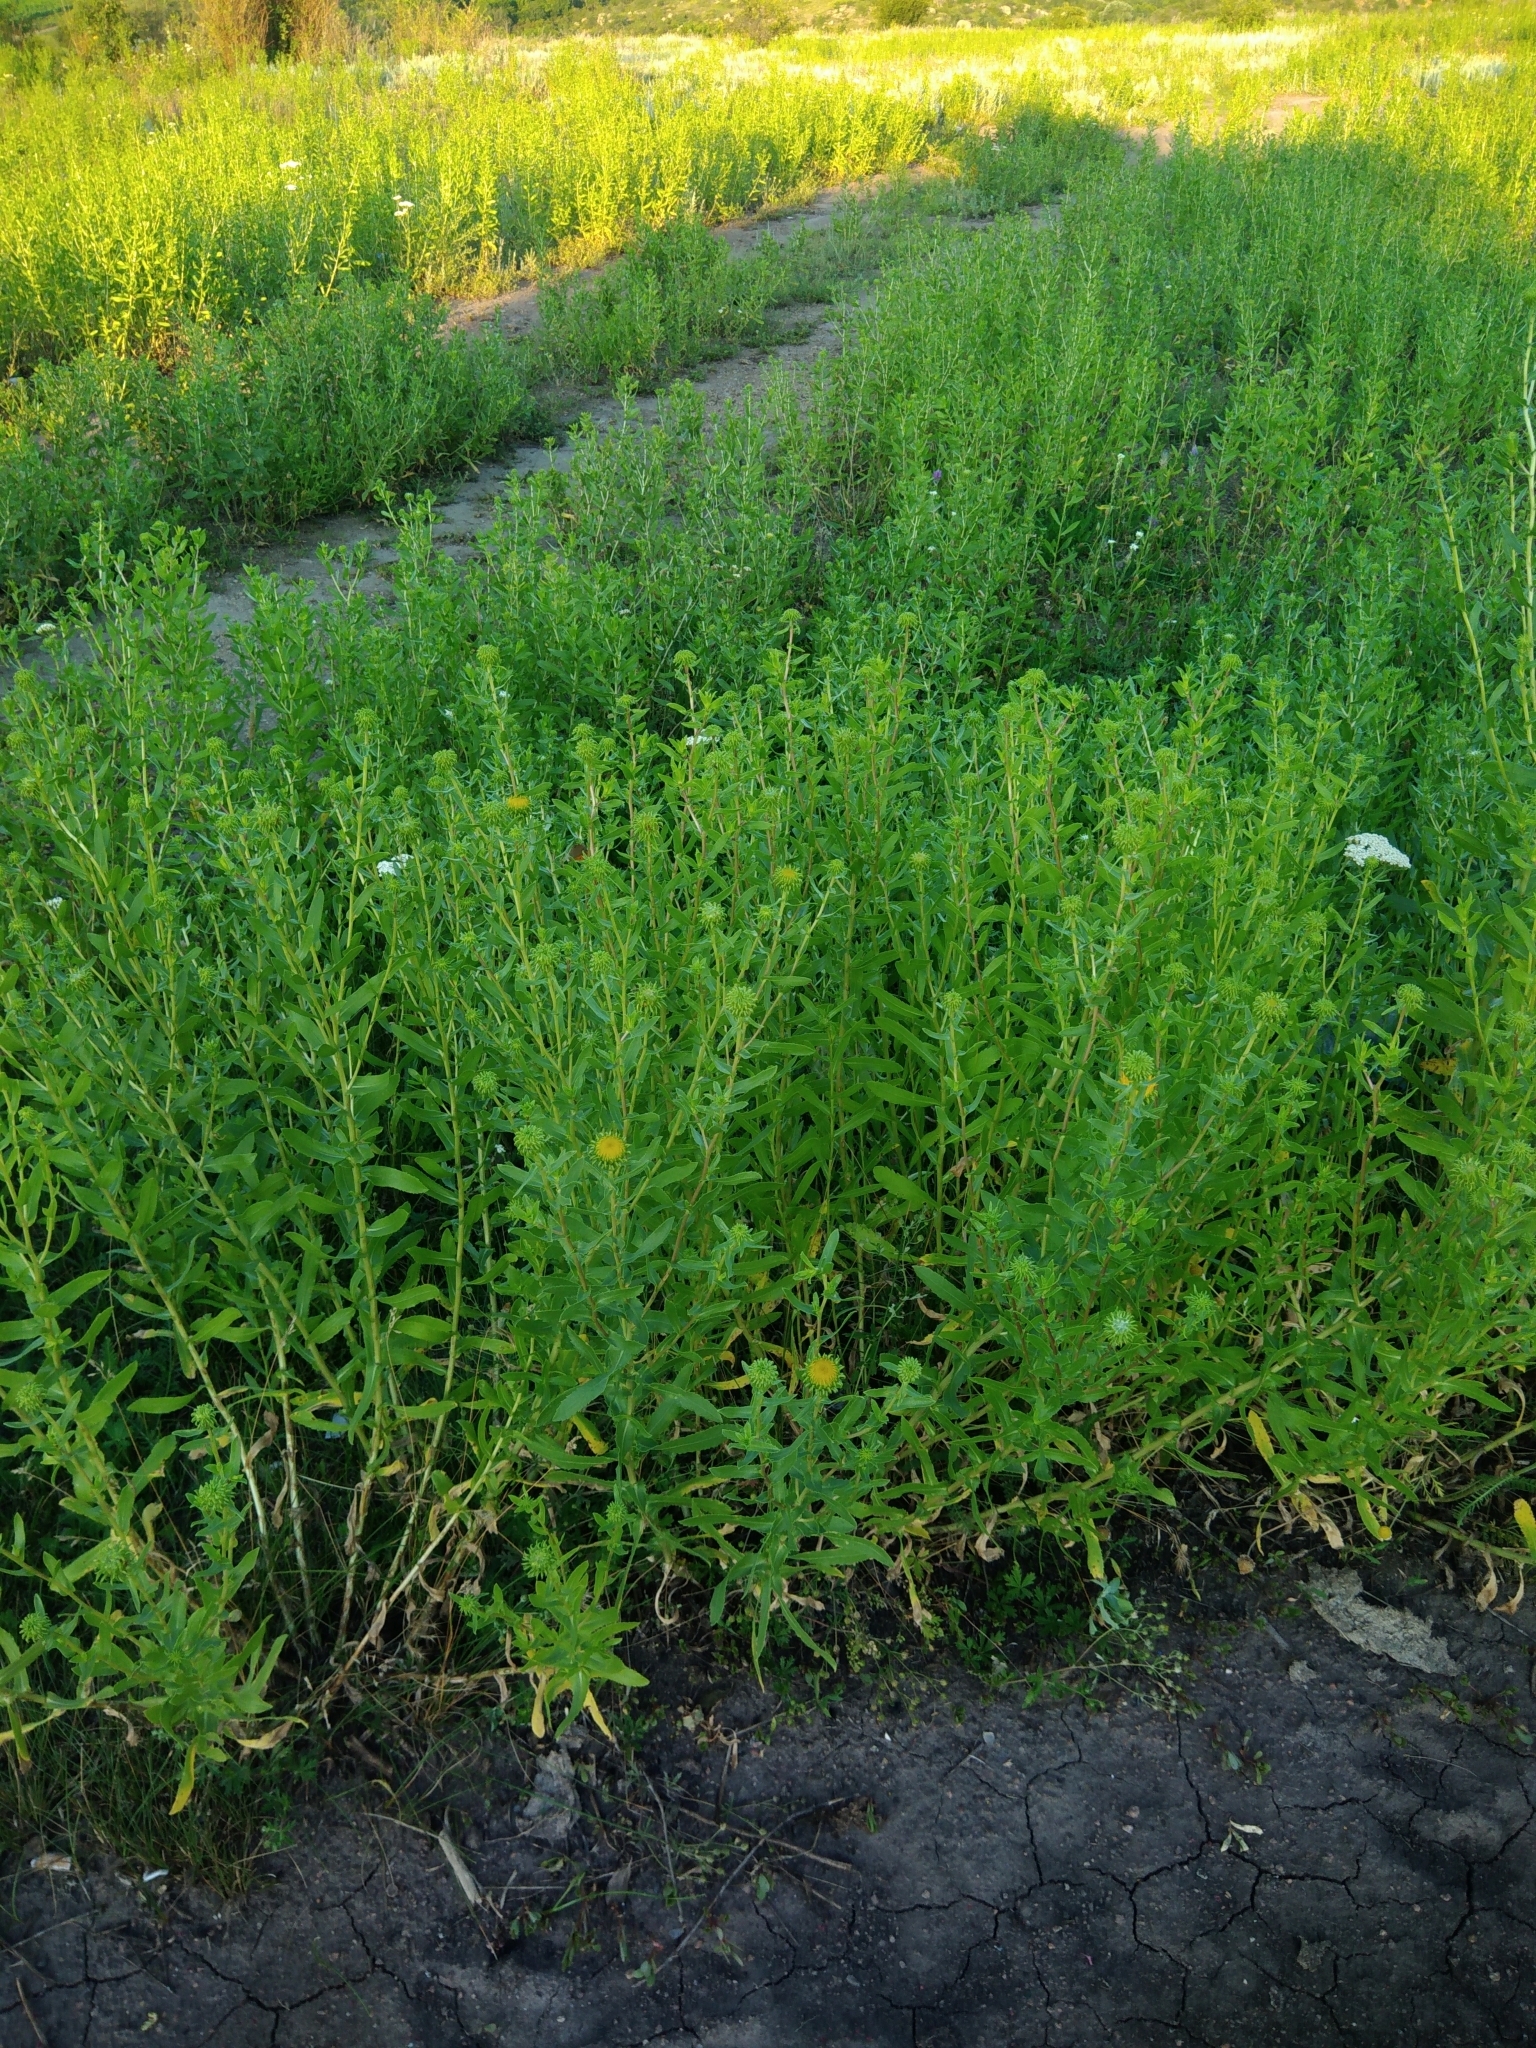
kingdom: Plantae
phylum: Tracheophyta
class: Magnoliopsida
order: Asterales
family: Asteraceae
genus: Grindelia
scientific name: Grindelia squarrosa
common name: Curly-cup gumweed
